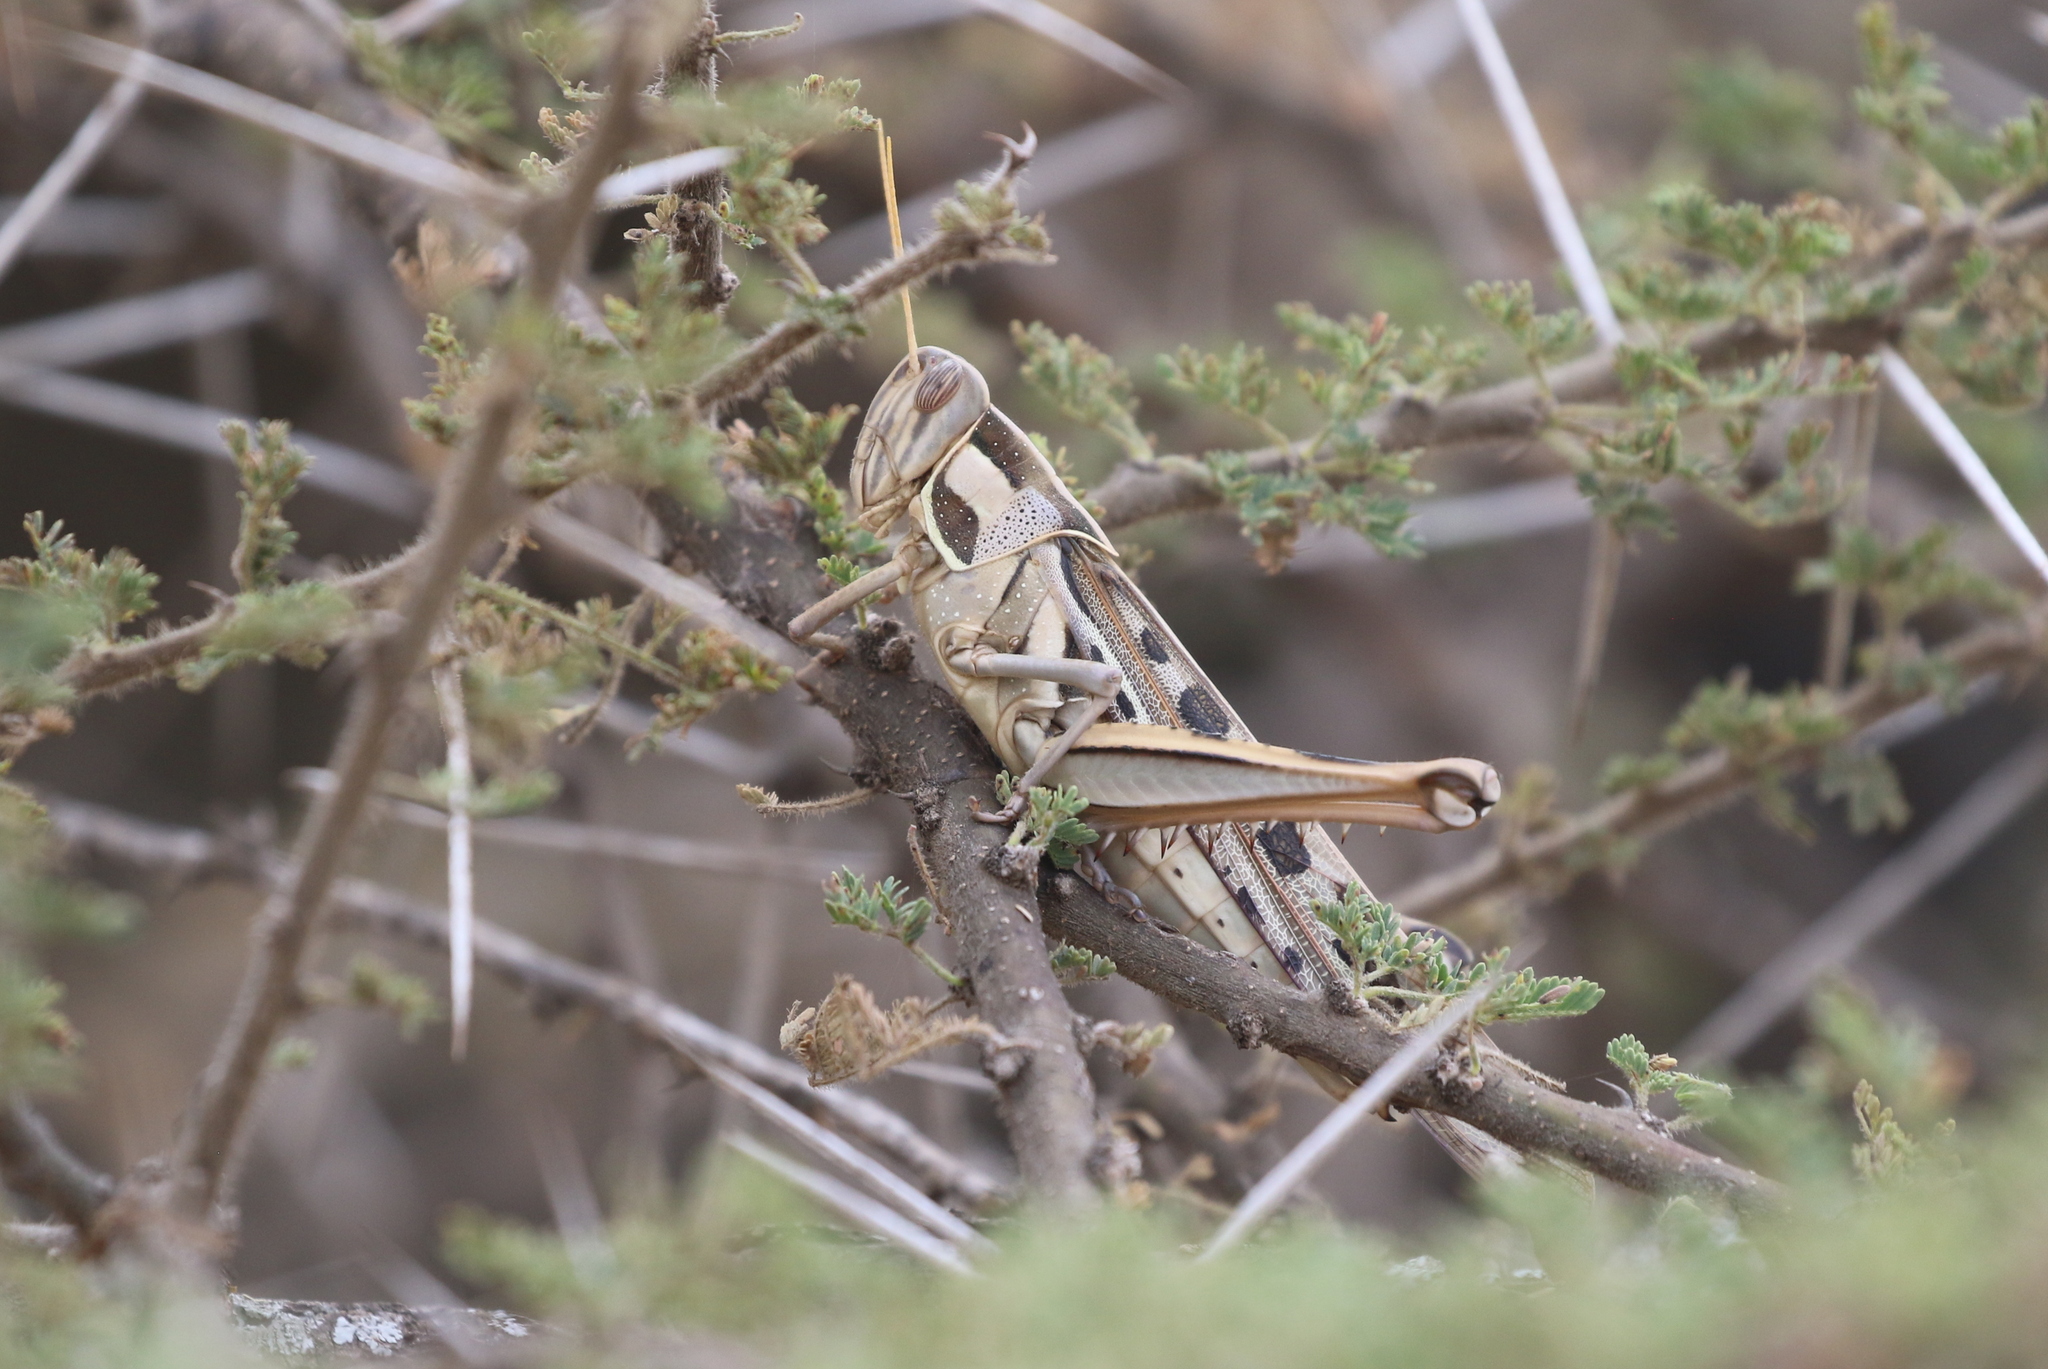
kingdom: Animalia
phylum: Arthropoda
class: Insecta
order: Orthoptera
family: Acrididae
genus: Cyrtacanthacris
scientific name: Cyrtacanthacris tatarica
